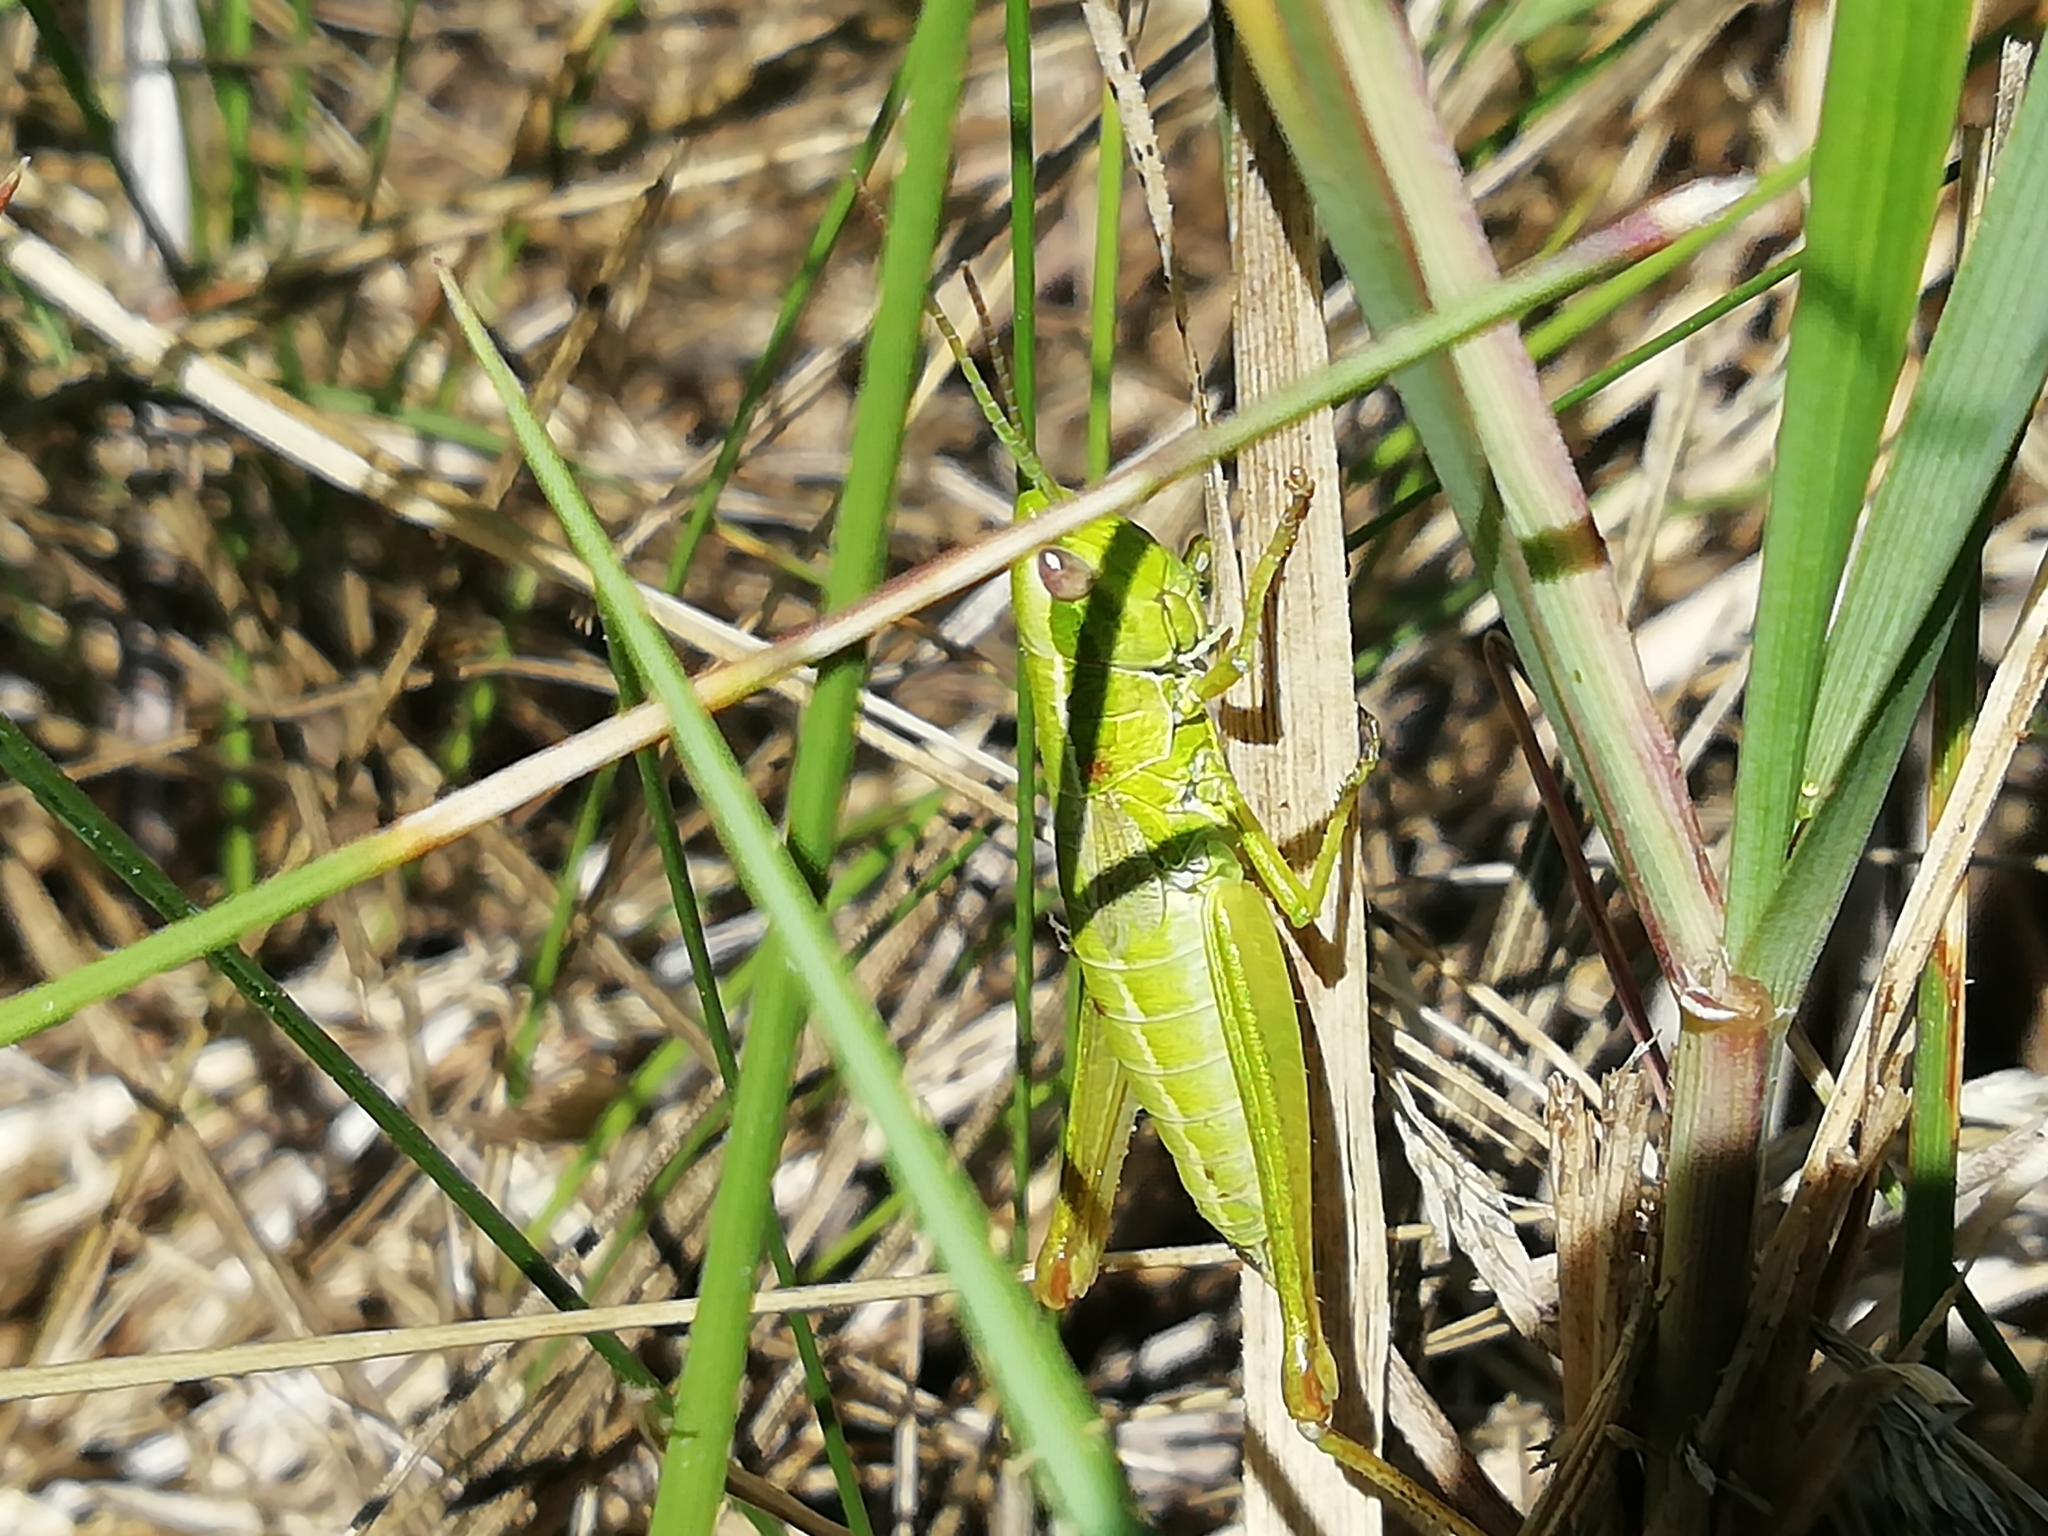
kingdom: Animalia
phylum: Arthropoda
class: Insecta
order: Orthoptera
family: Acrididae
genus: Euthystira
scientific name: Euthystira brachyptera
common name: Small gold grasshopper
